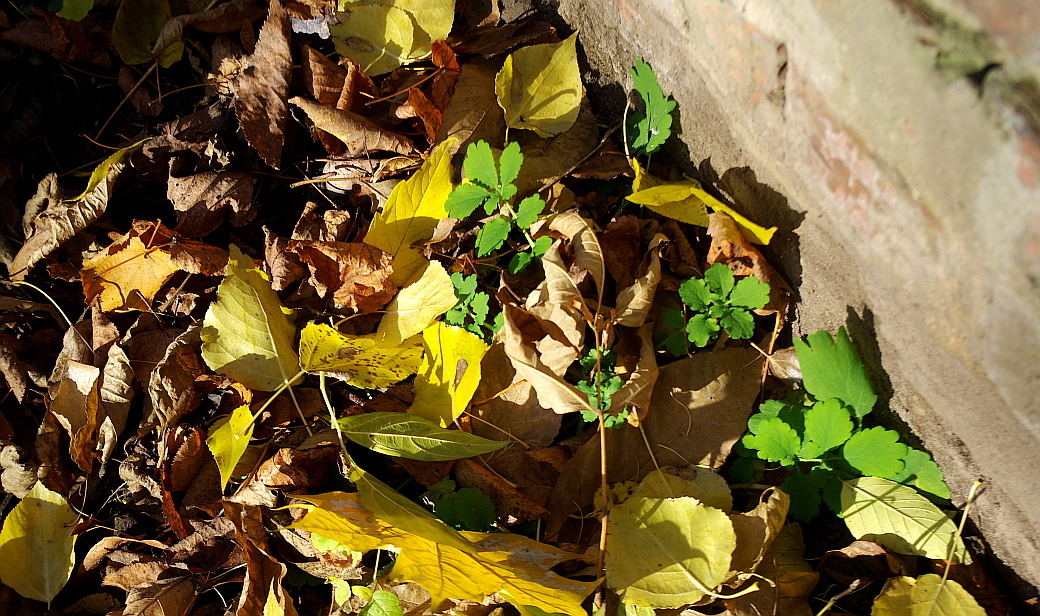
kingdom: Plantae
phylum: Tracheophyta
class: Magnoliopsida
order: Ranunculales
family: Papaveraceae
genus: Chelidonium
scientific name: Chelidonium majus
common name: Greater celandine
